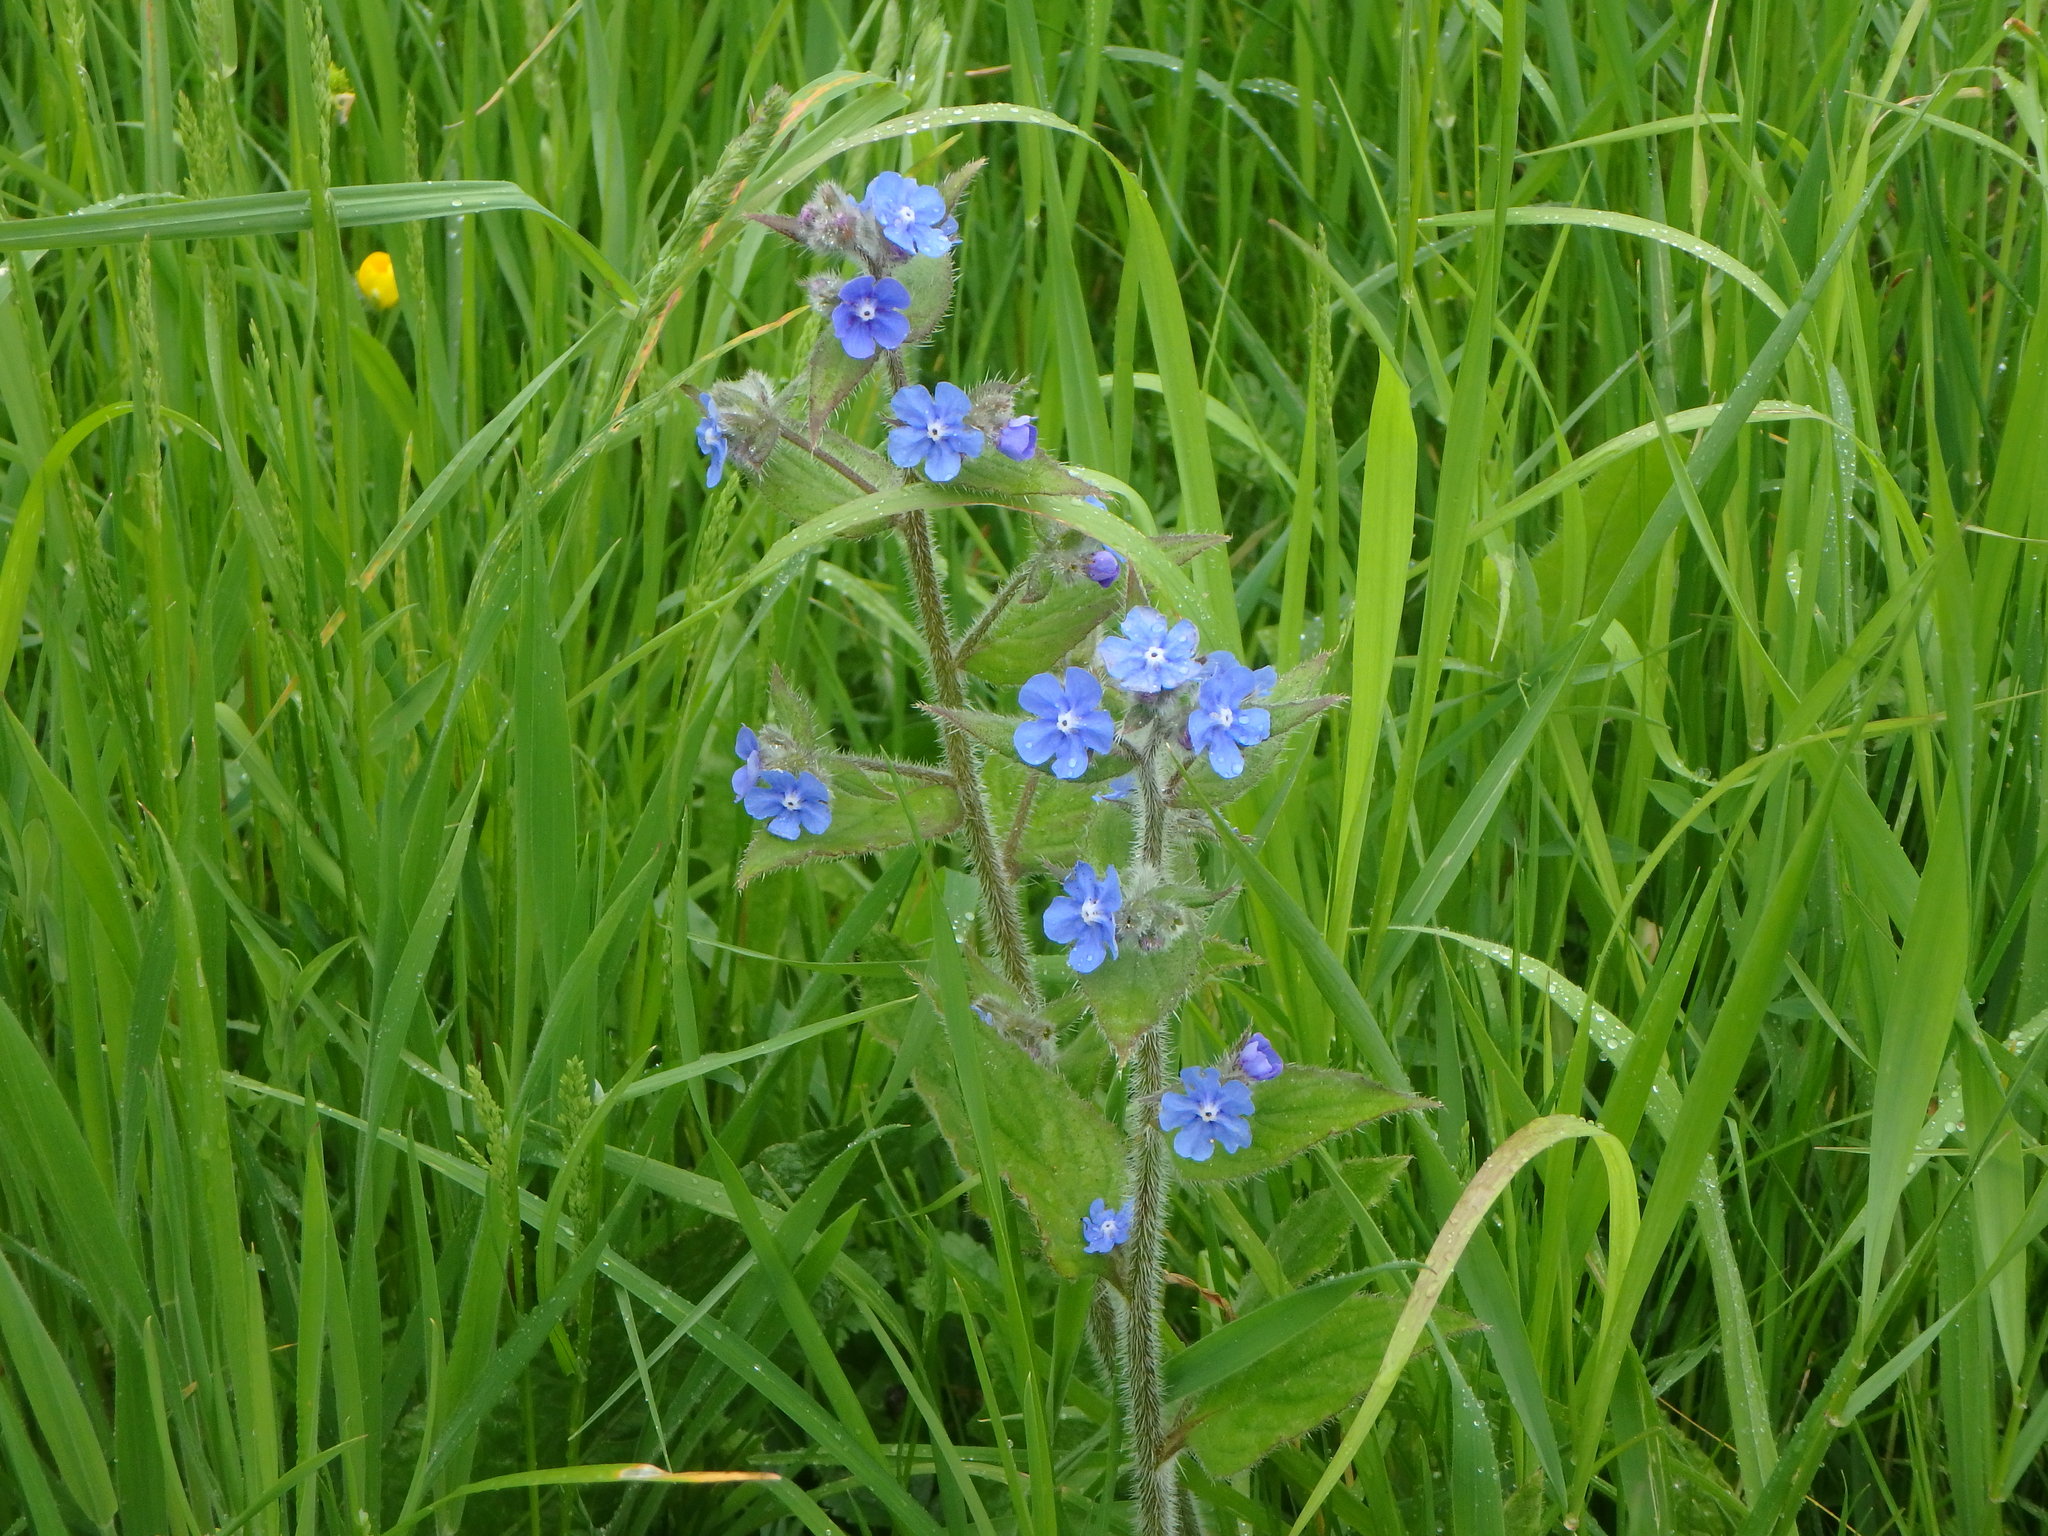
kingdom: Plantae
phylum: Tracheophyta
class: Magnoliopsida
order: Boraginales
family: Boraginaceae
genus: Pentaglottis
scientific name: Pentaglottis sempervirens
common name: Green alkanet
